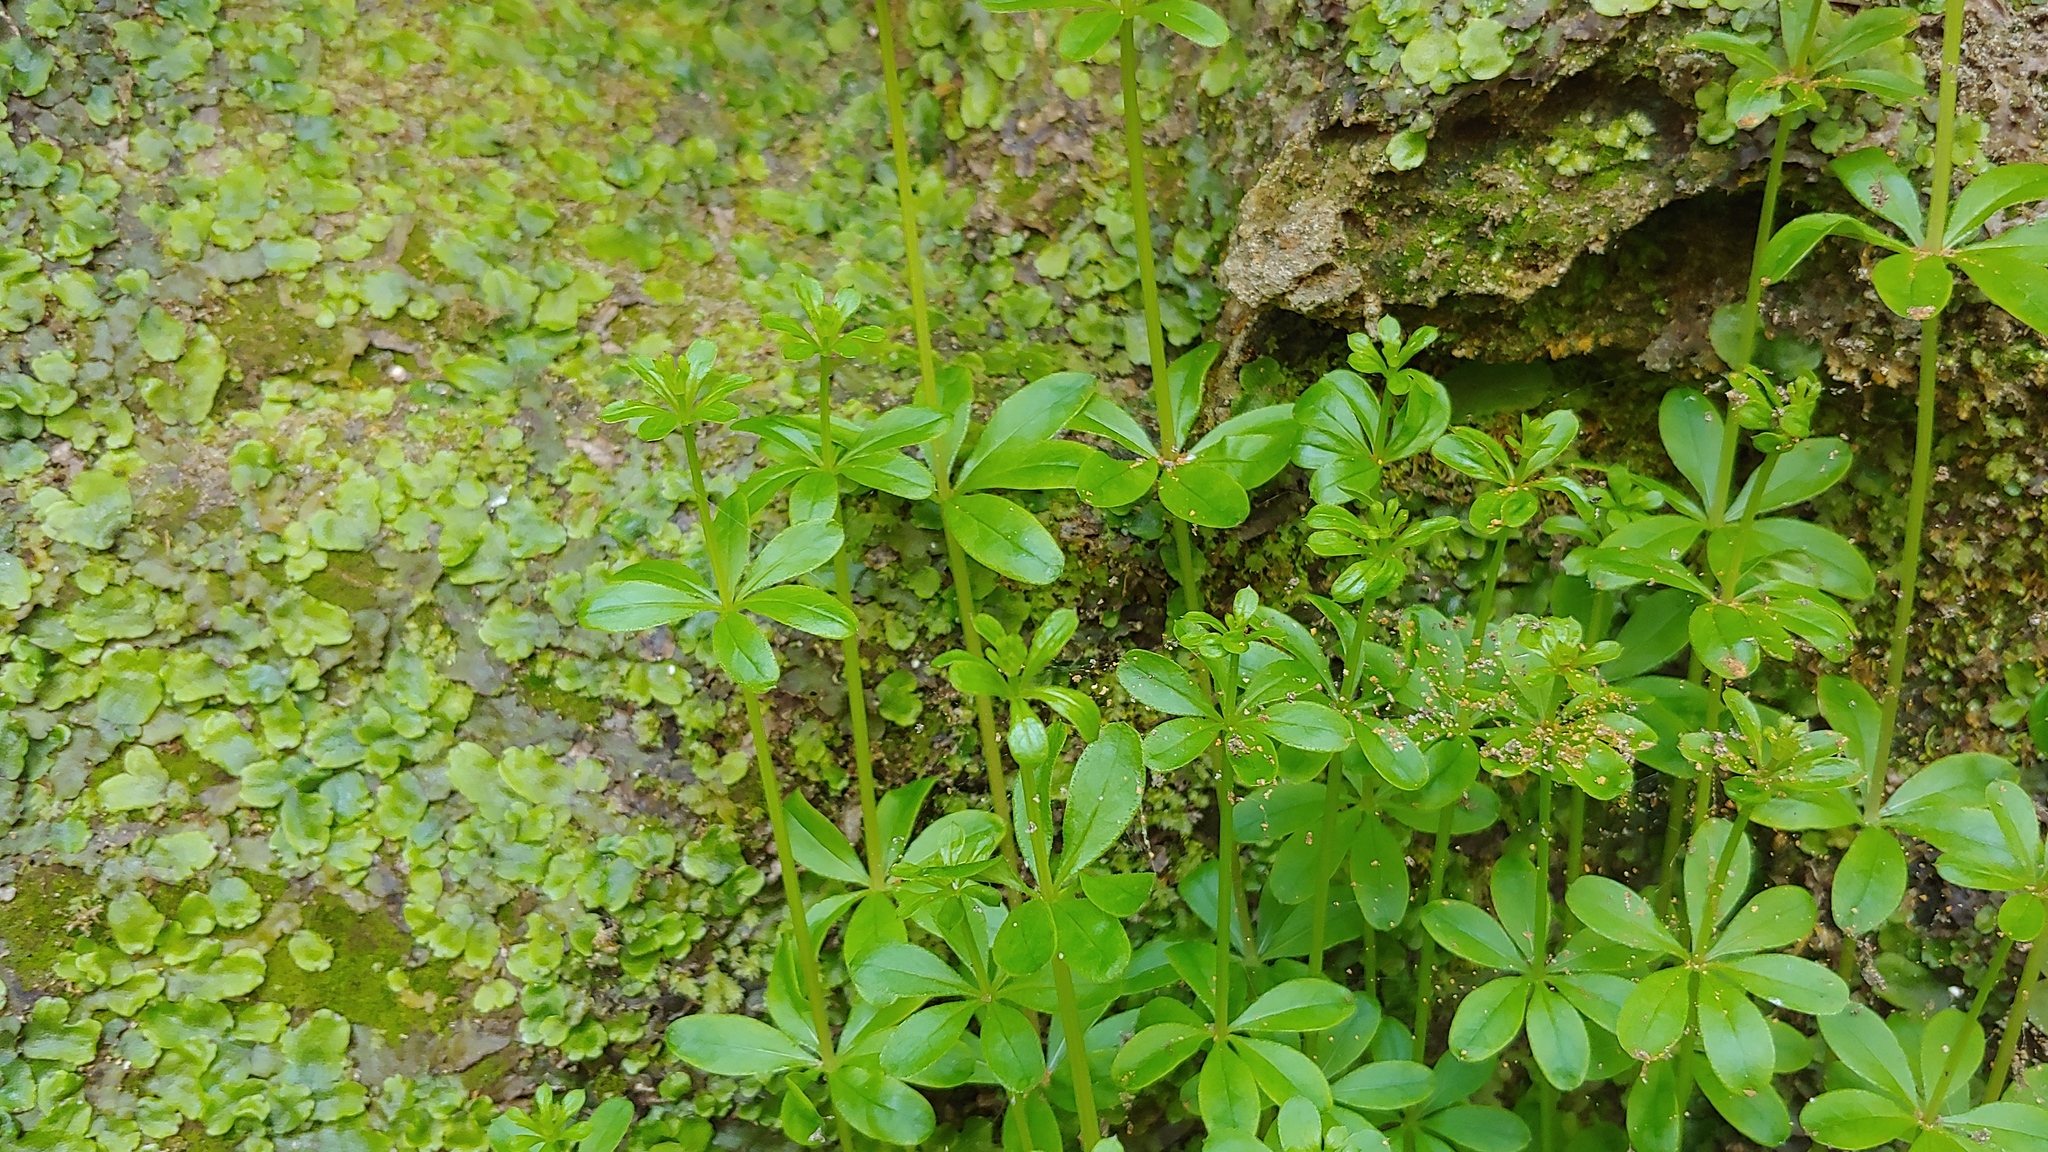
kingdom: Plantae
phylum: Tracheophyta
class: Magnoliopsida
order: Gentianales
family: Rubiaceae
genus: Galium
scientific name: Galium triflorum
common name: Fragrant bedstraw
